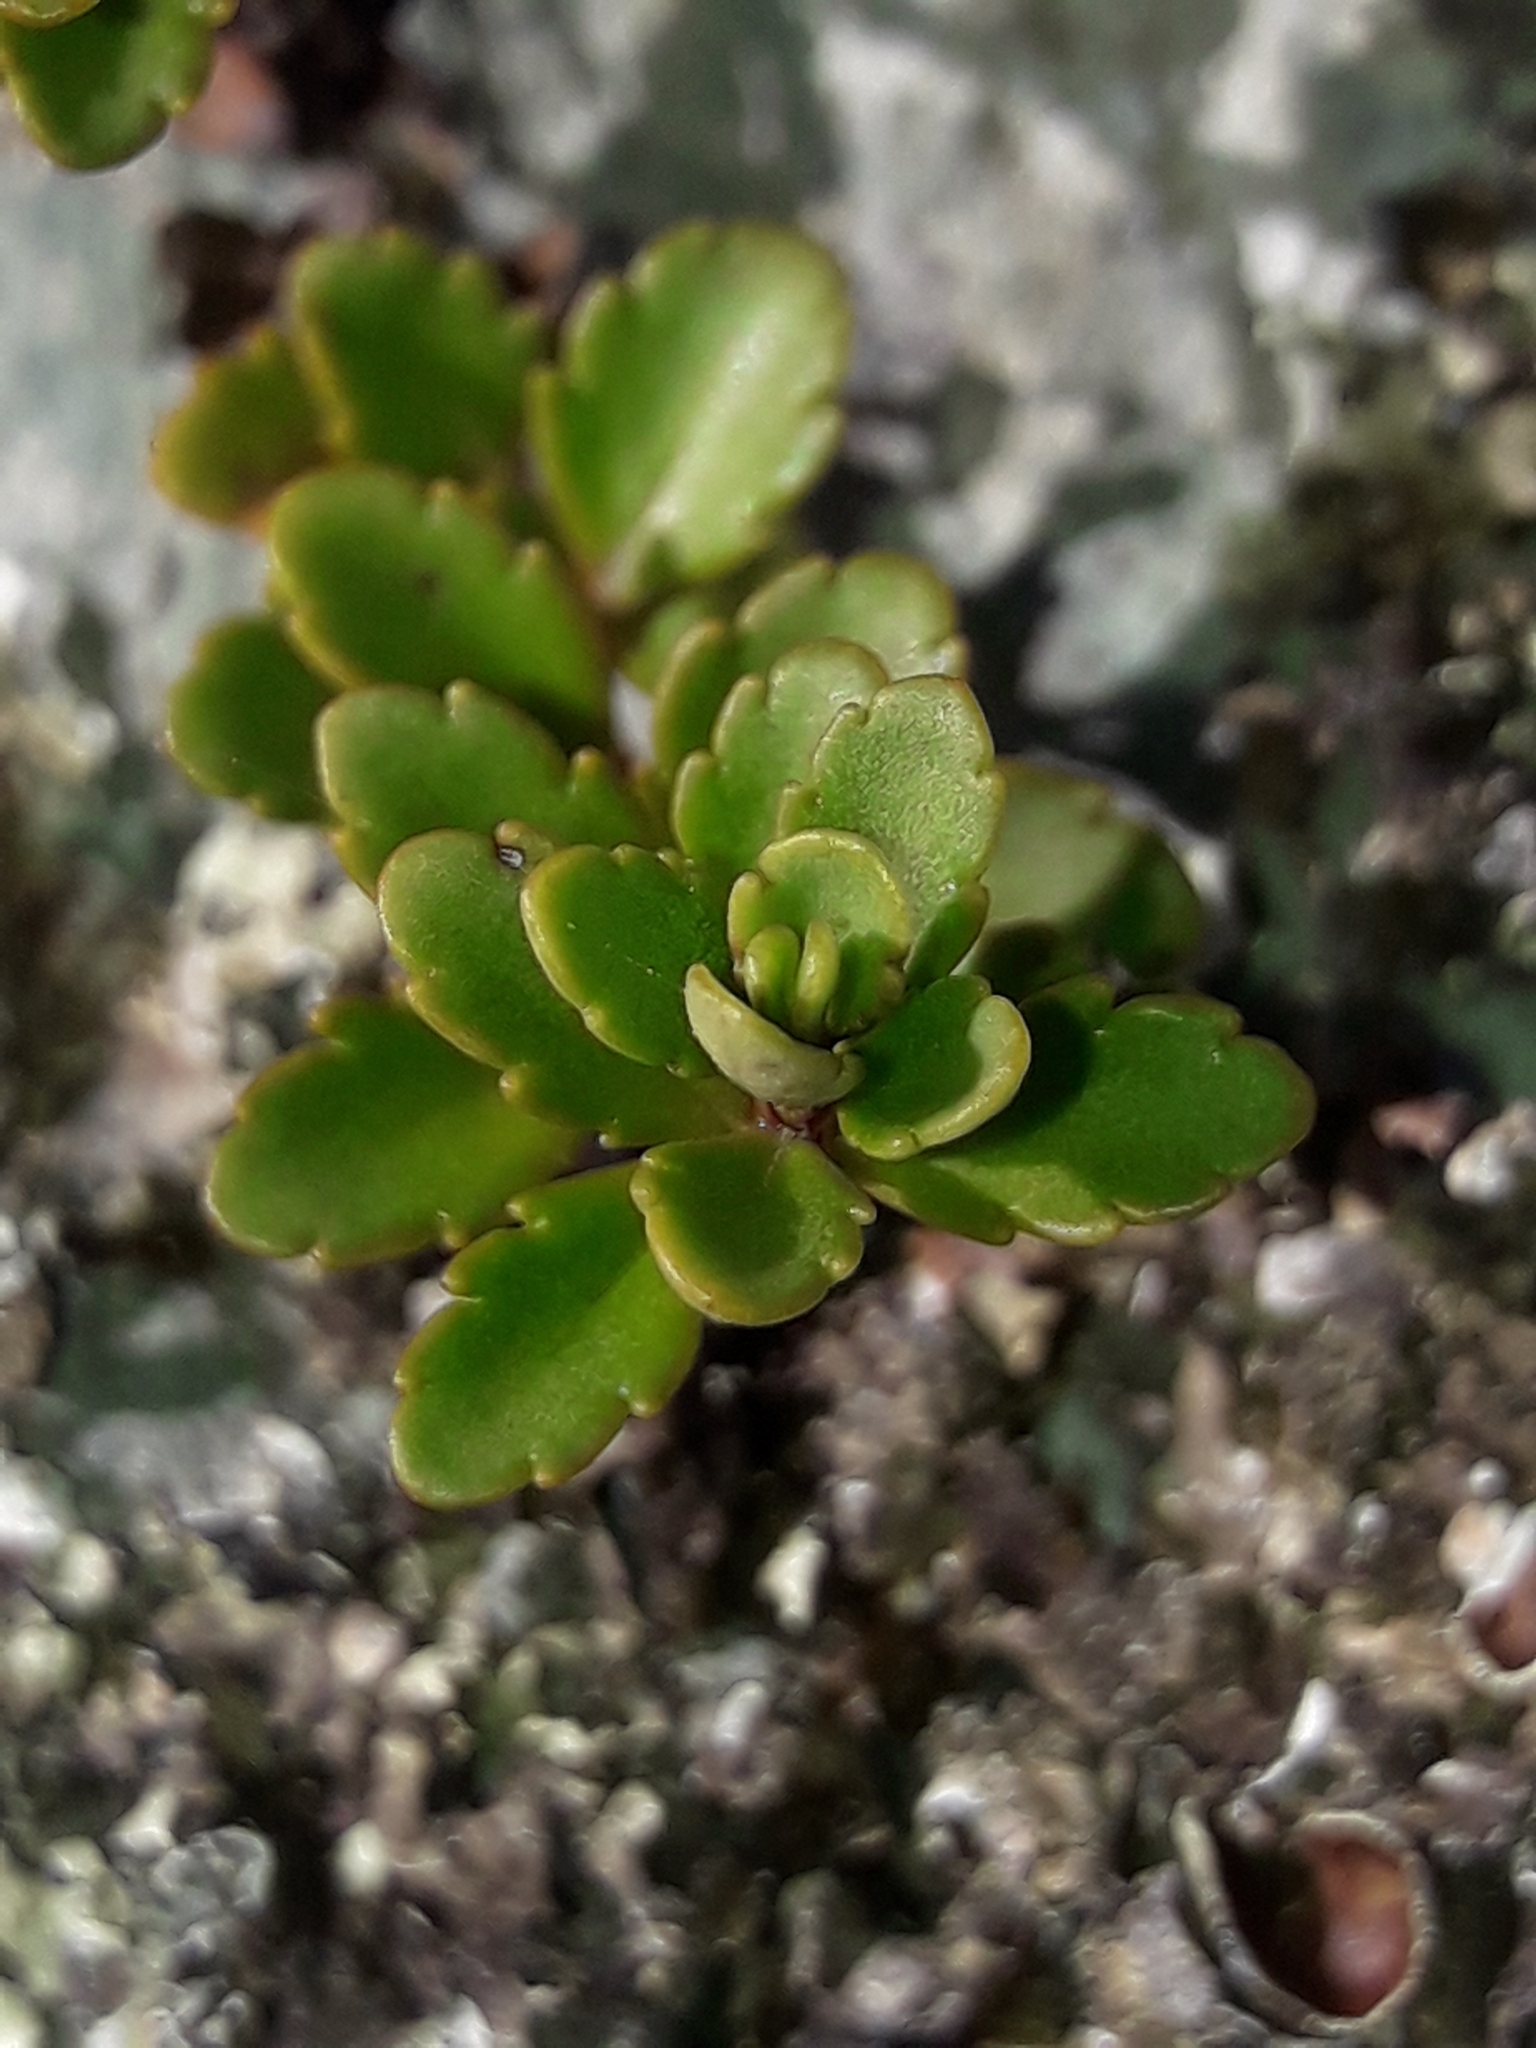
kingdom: Plantae
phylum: Tracheophyta
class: Magnoliopsida
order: Lamiales
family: Plantaginaceae
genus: Veronica
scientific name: Veronica lyallii
